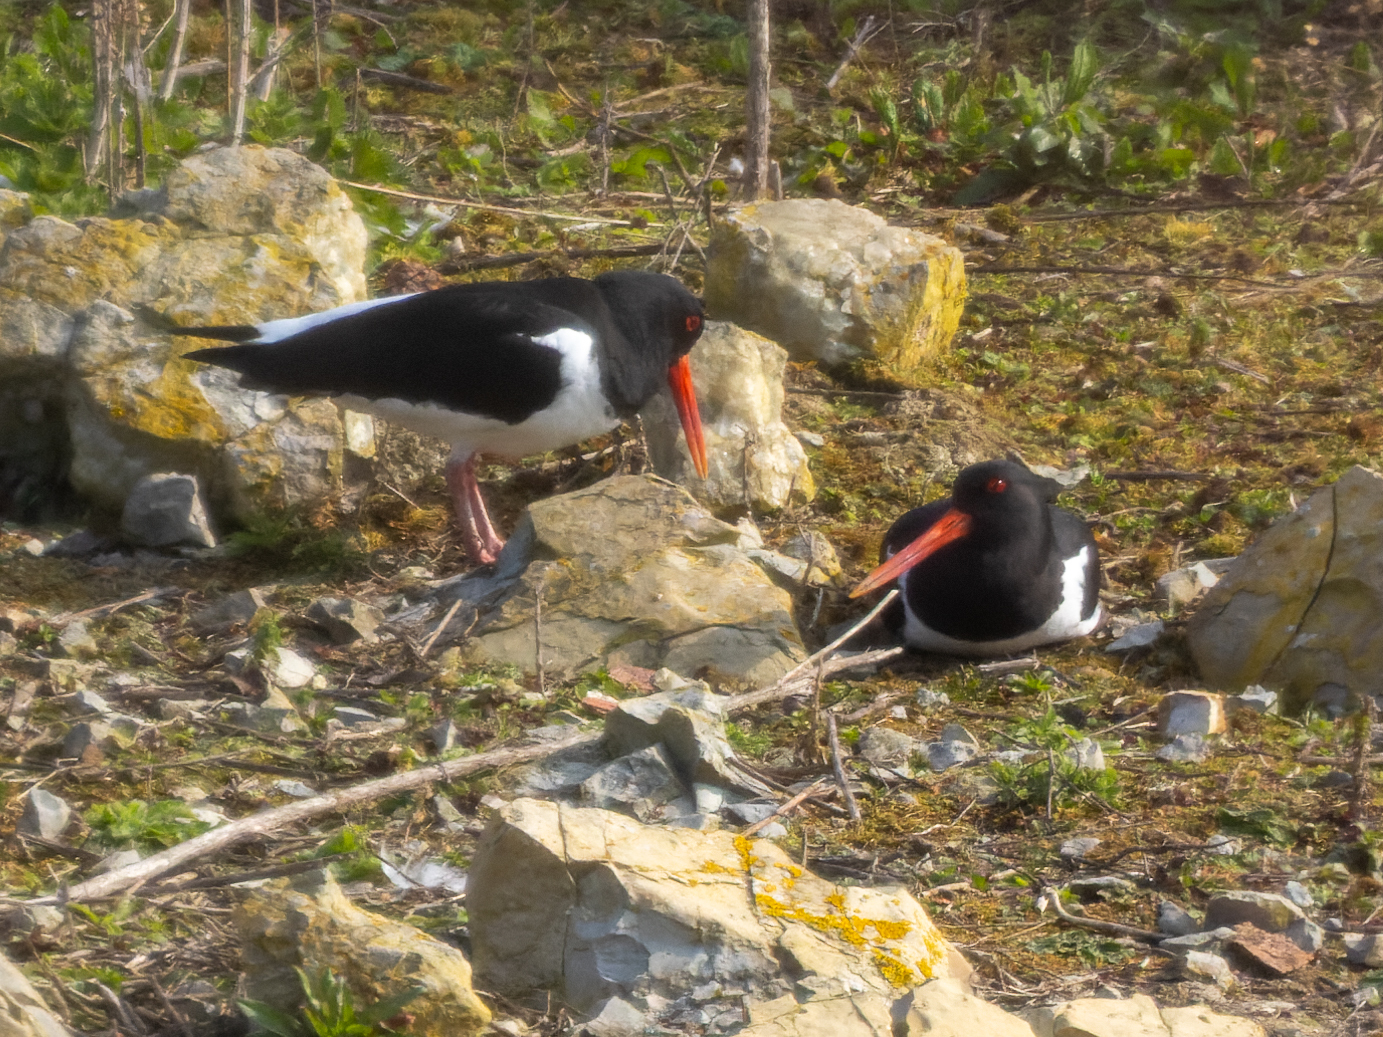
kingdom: Animalia
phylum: Chordata
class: Aves
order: Charadriiformes
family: Haematopodidae
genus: Haematopus
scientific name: Haematopus ostralegus
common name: Eurasian oystercatcher
